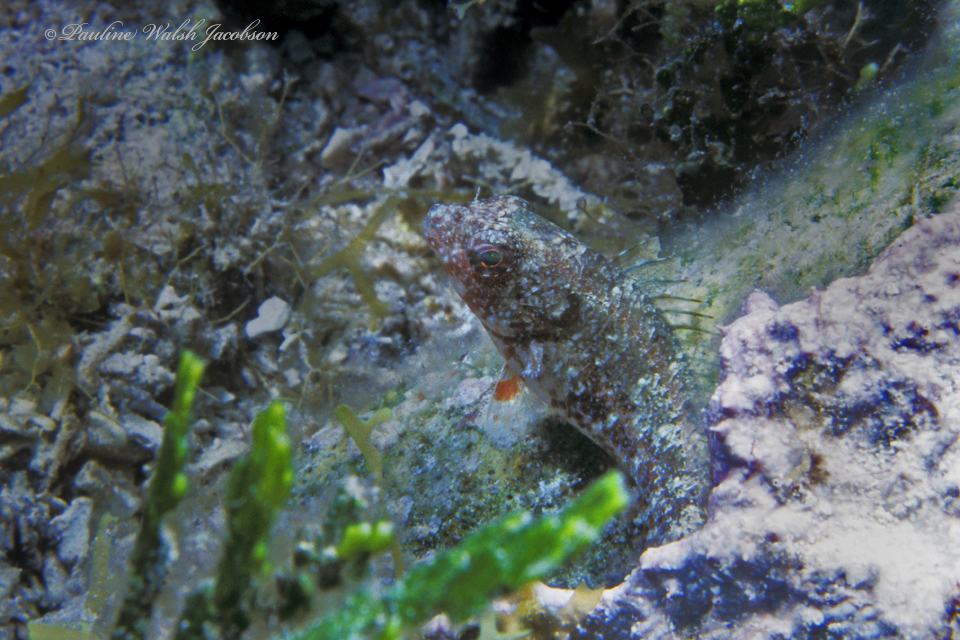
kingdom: Animalia
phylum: Chordata
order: Perciformes
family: Labrisomidae
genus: Malacoctenus
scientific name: Malacoctenus macropus
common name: Rosy blenny
